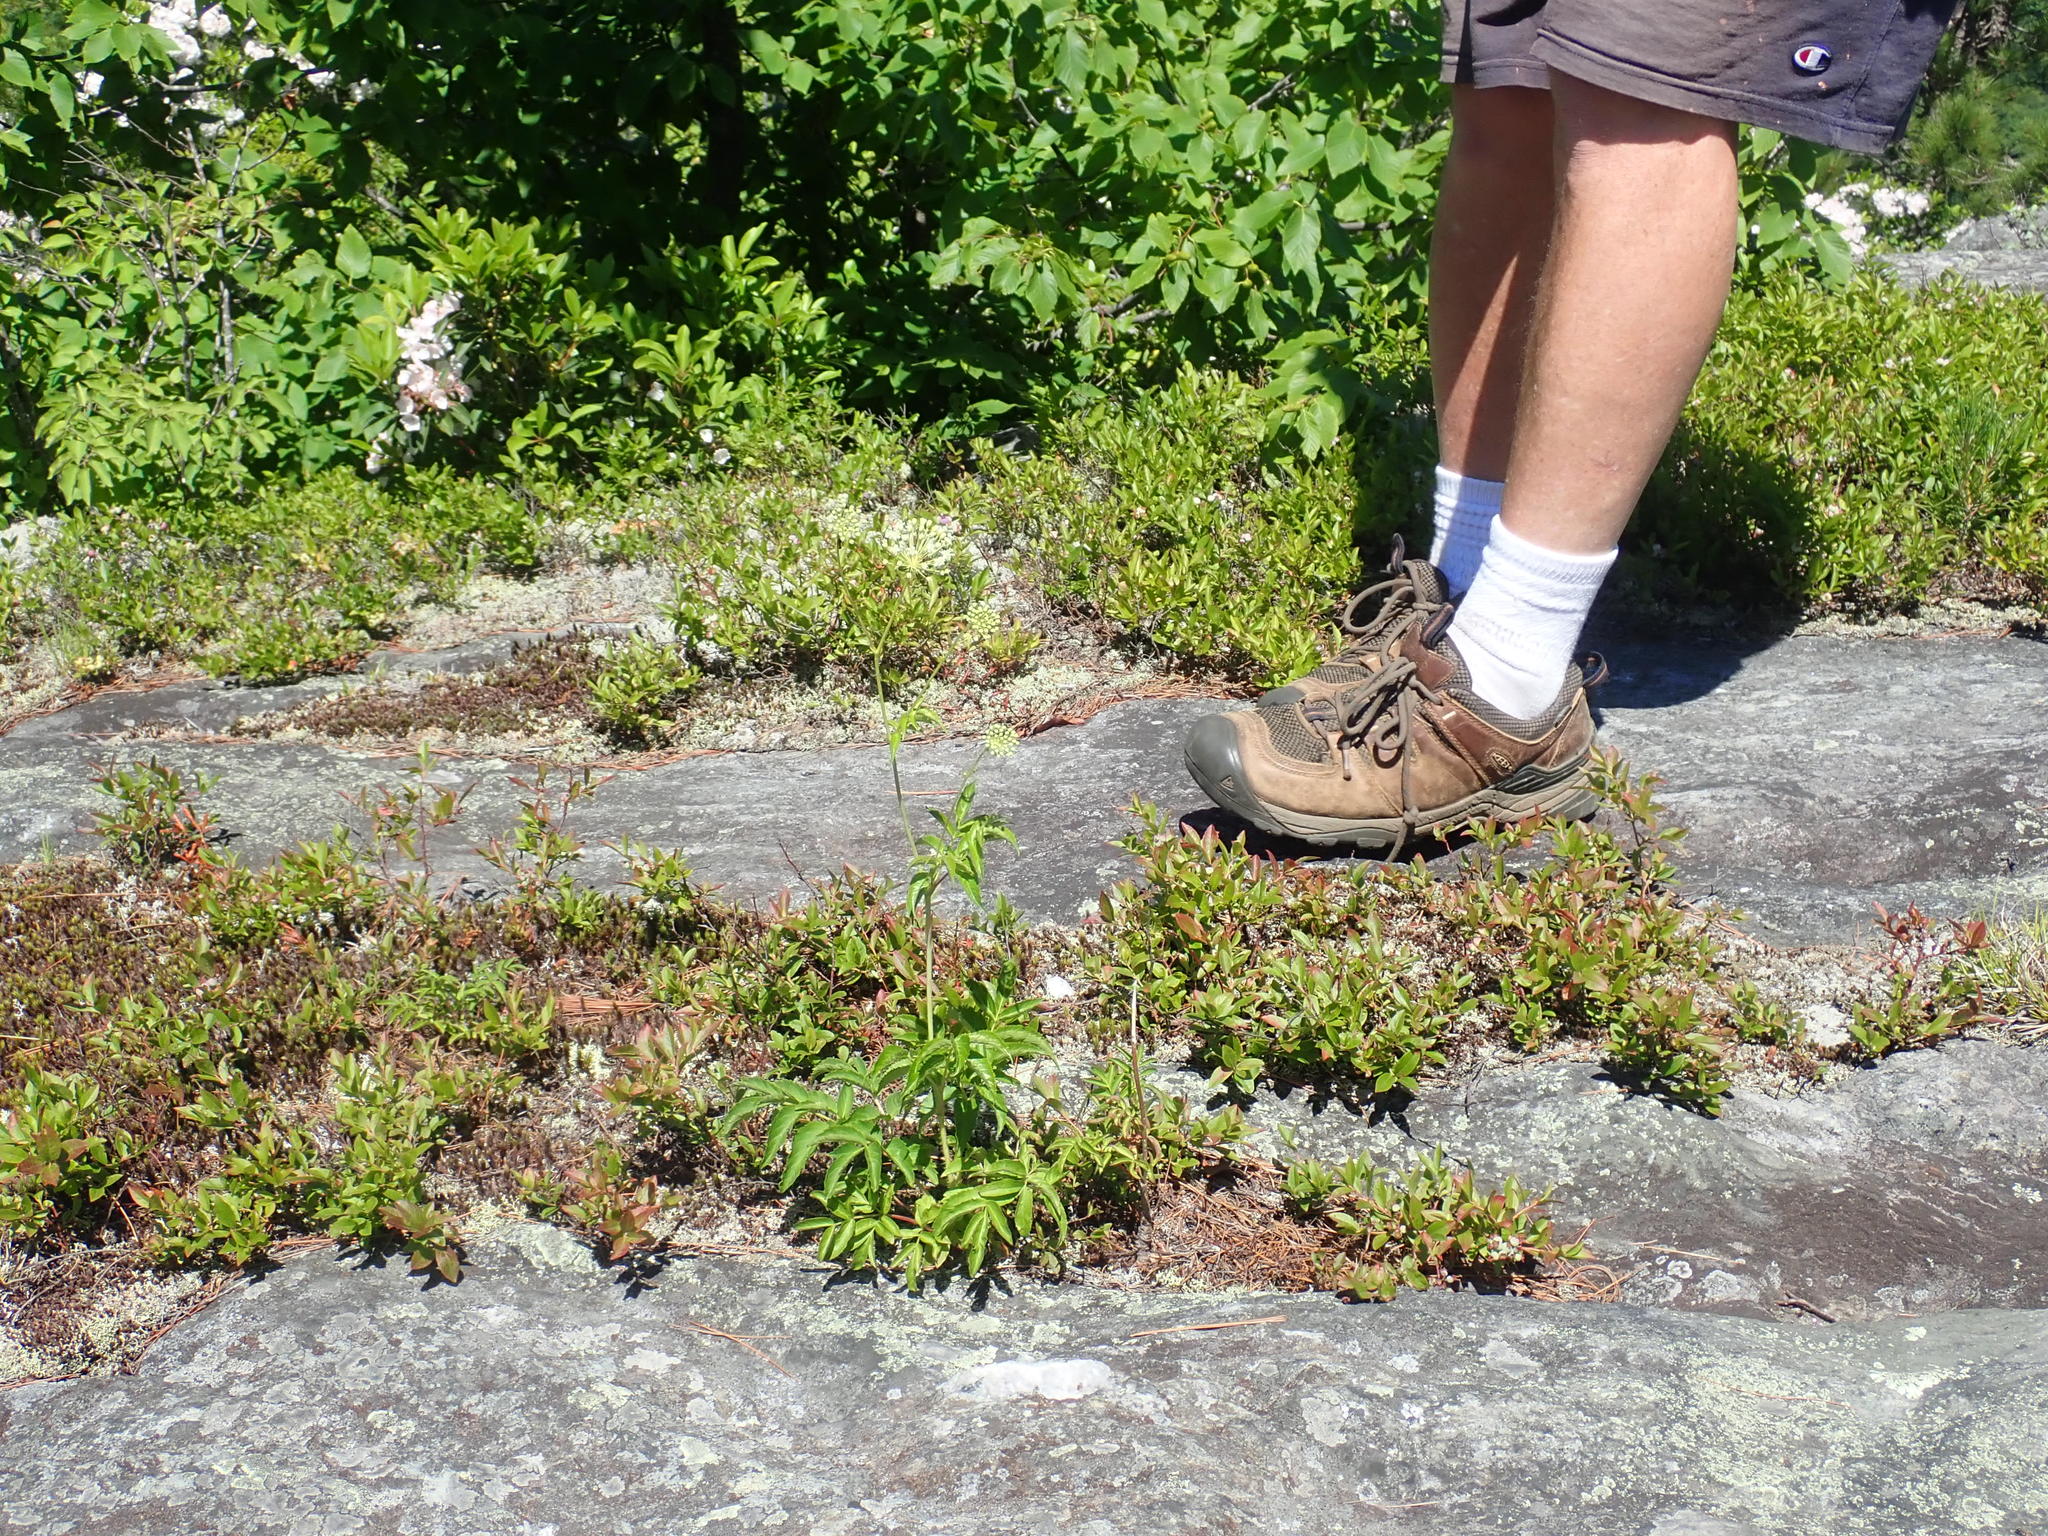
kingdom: Plantae
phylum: Tracheophyta
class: Magnoliopsida
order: Apiales
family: Araliaceae
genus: Aralia
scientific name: Aralia hispida
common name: Bristly sarsaparilla
